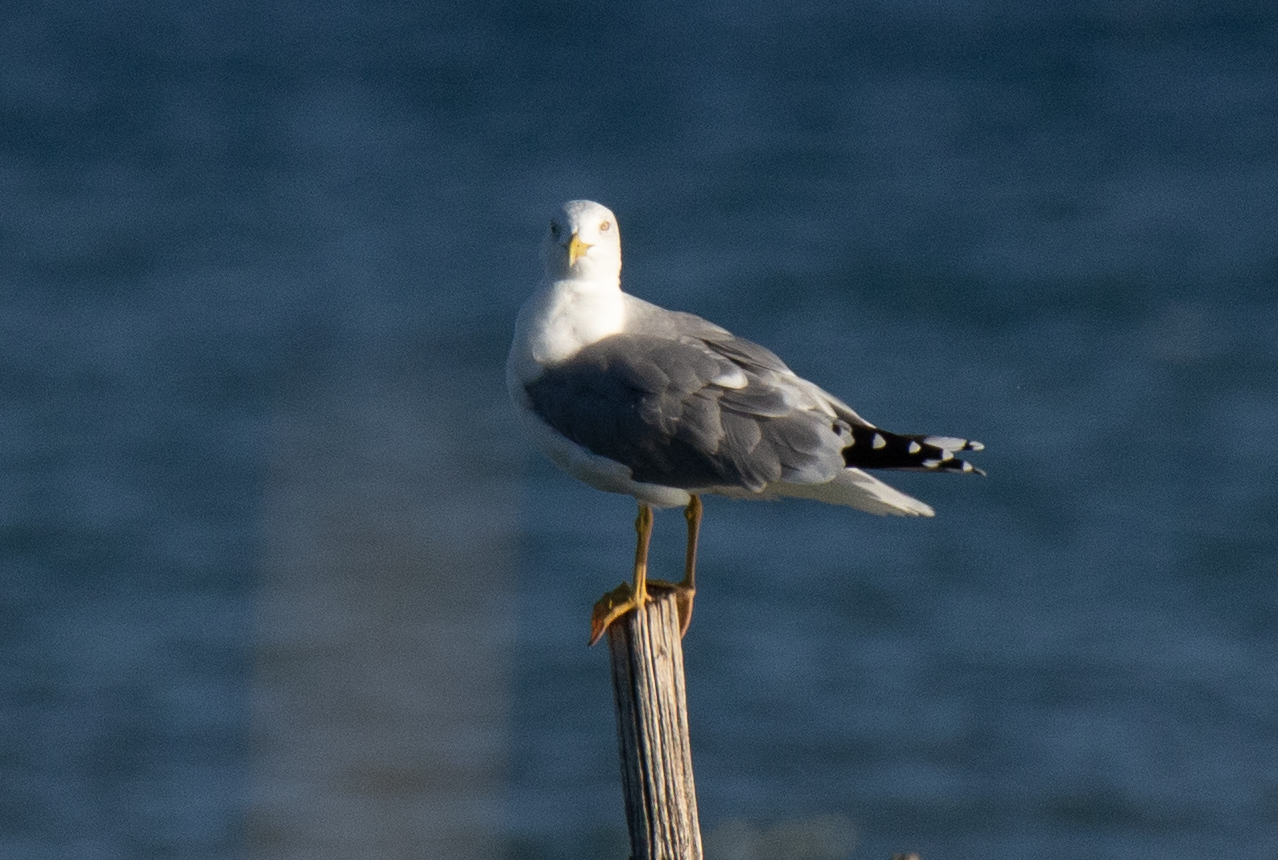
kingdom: Animalia
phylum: Chordata
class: Aves
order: Charadriiformes
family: Laridae
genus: Larus
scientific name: Larus michahellis
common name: Yellow-legged gull
